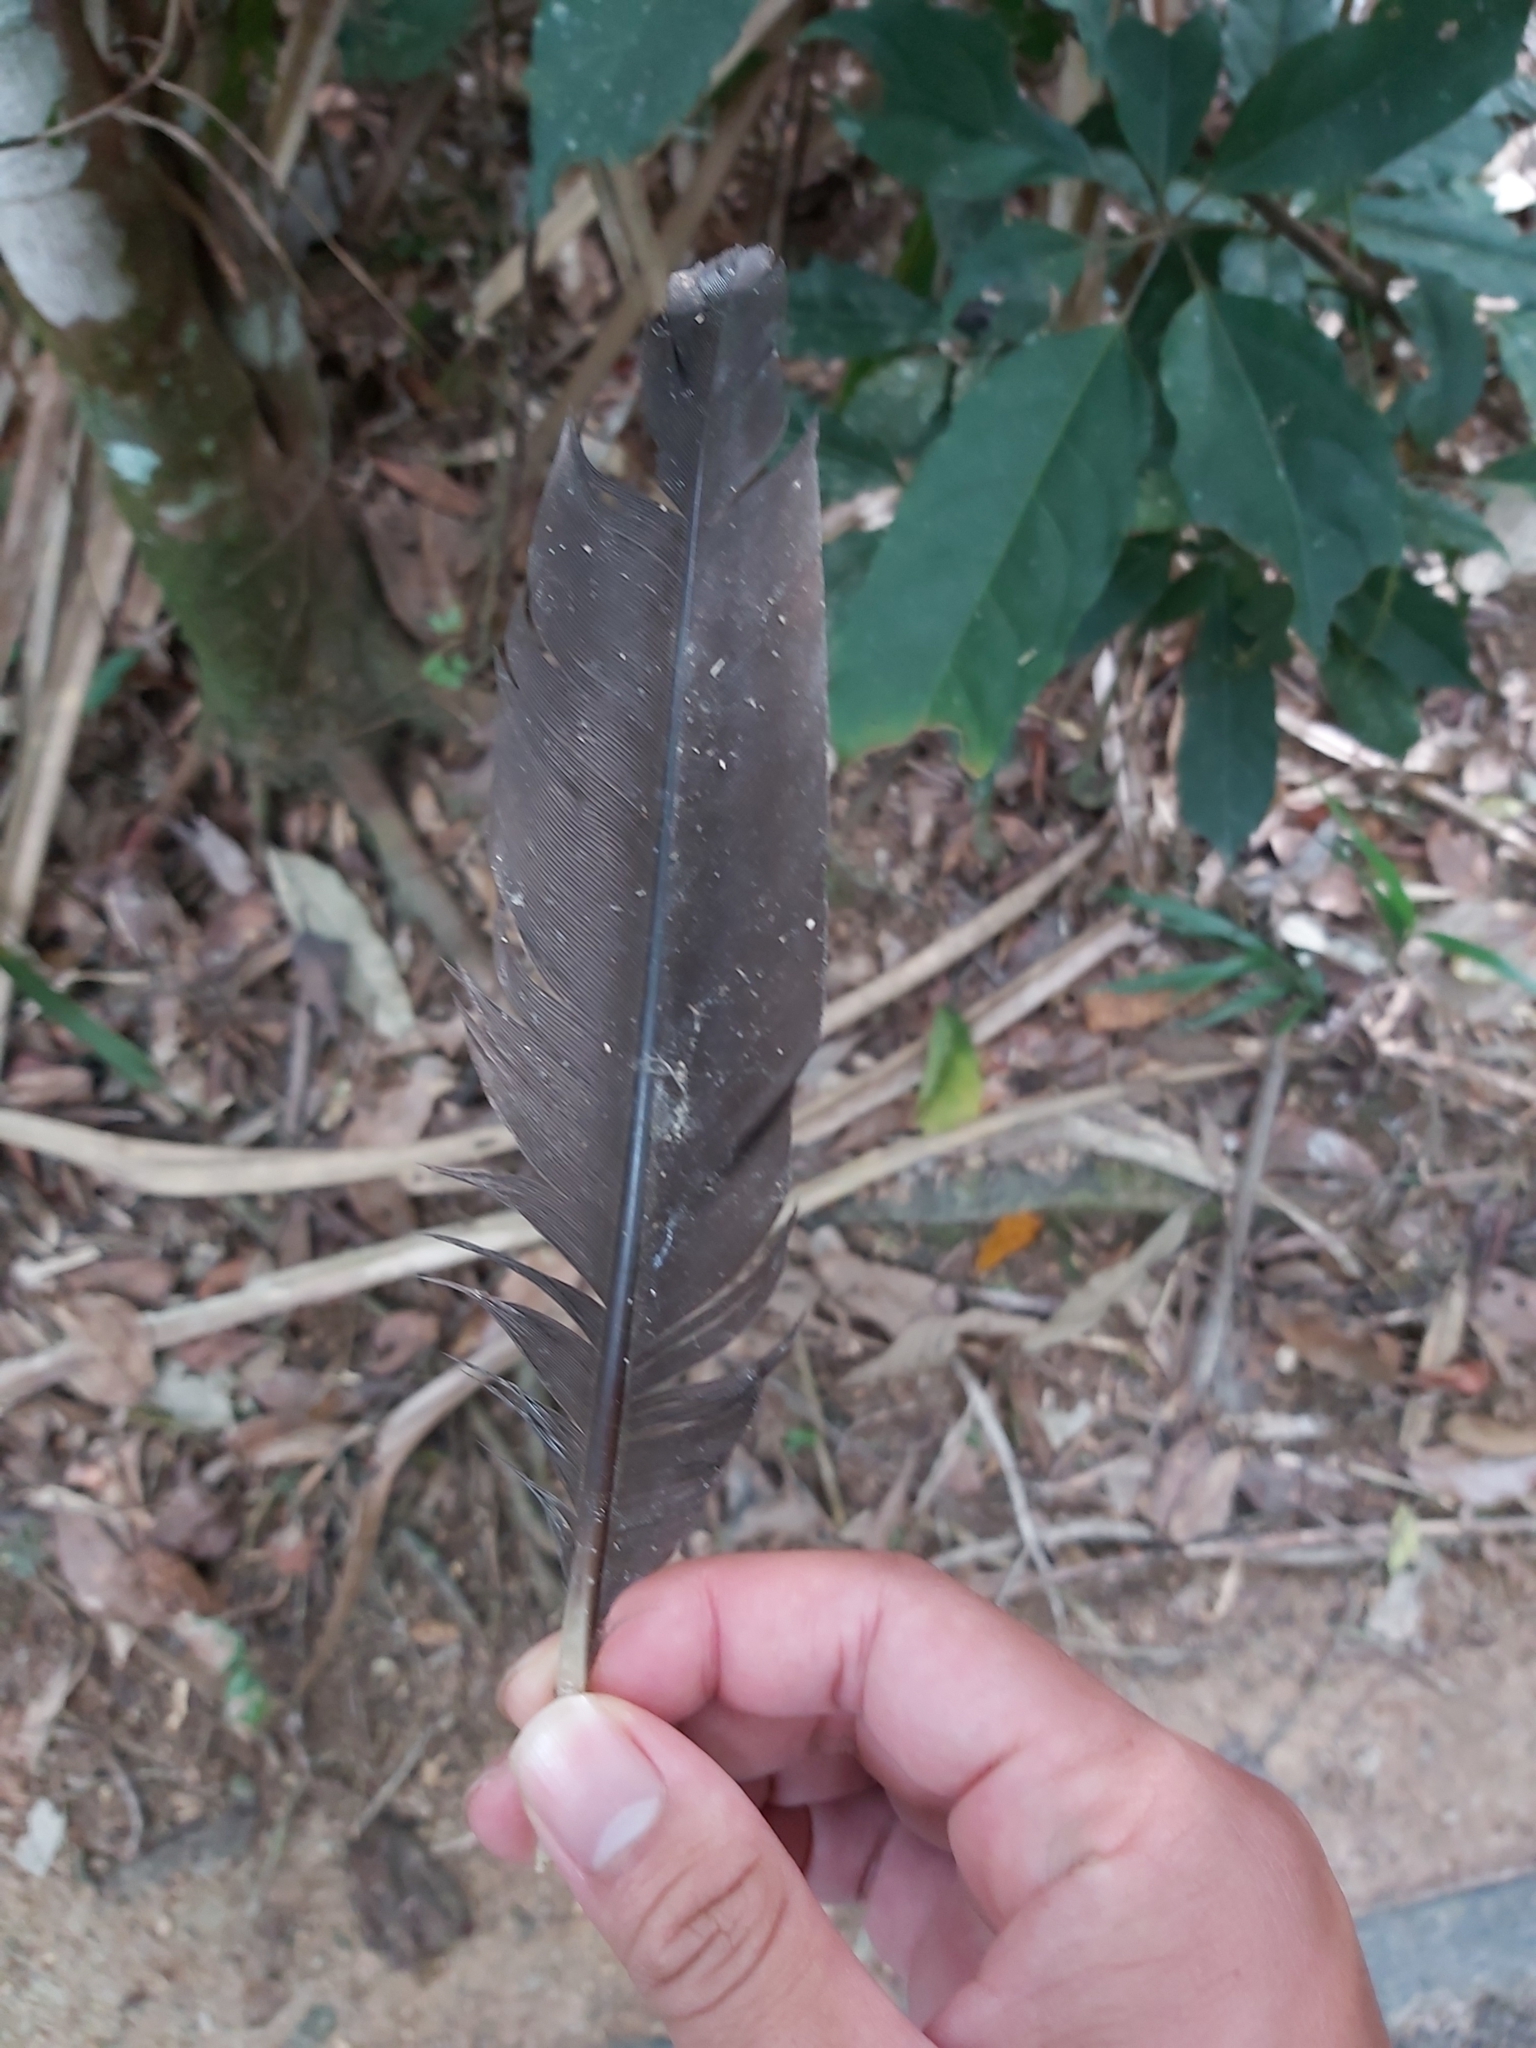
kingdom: Animalia
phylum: Chordata
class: Aves
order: Galliformes
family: Megapodiidae
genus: Alectura
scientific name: Alectura lathami
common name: Australian brushturkey
